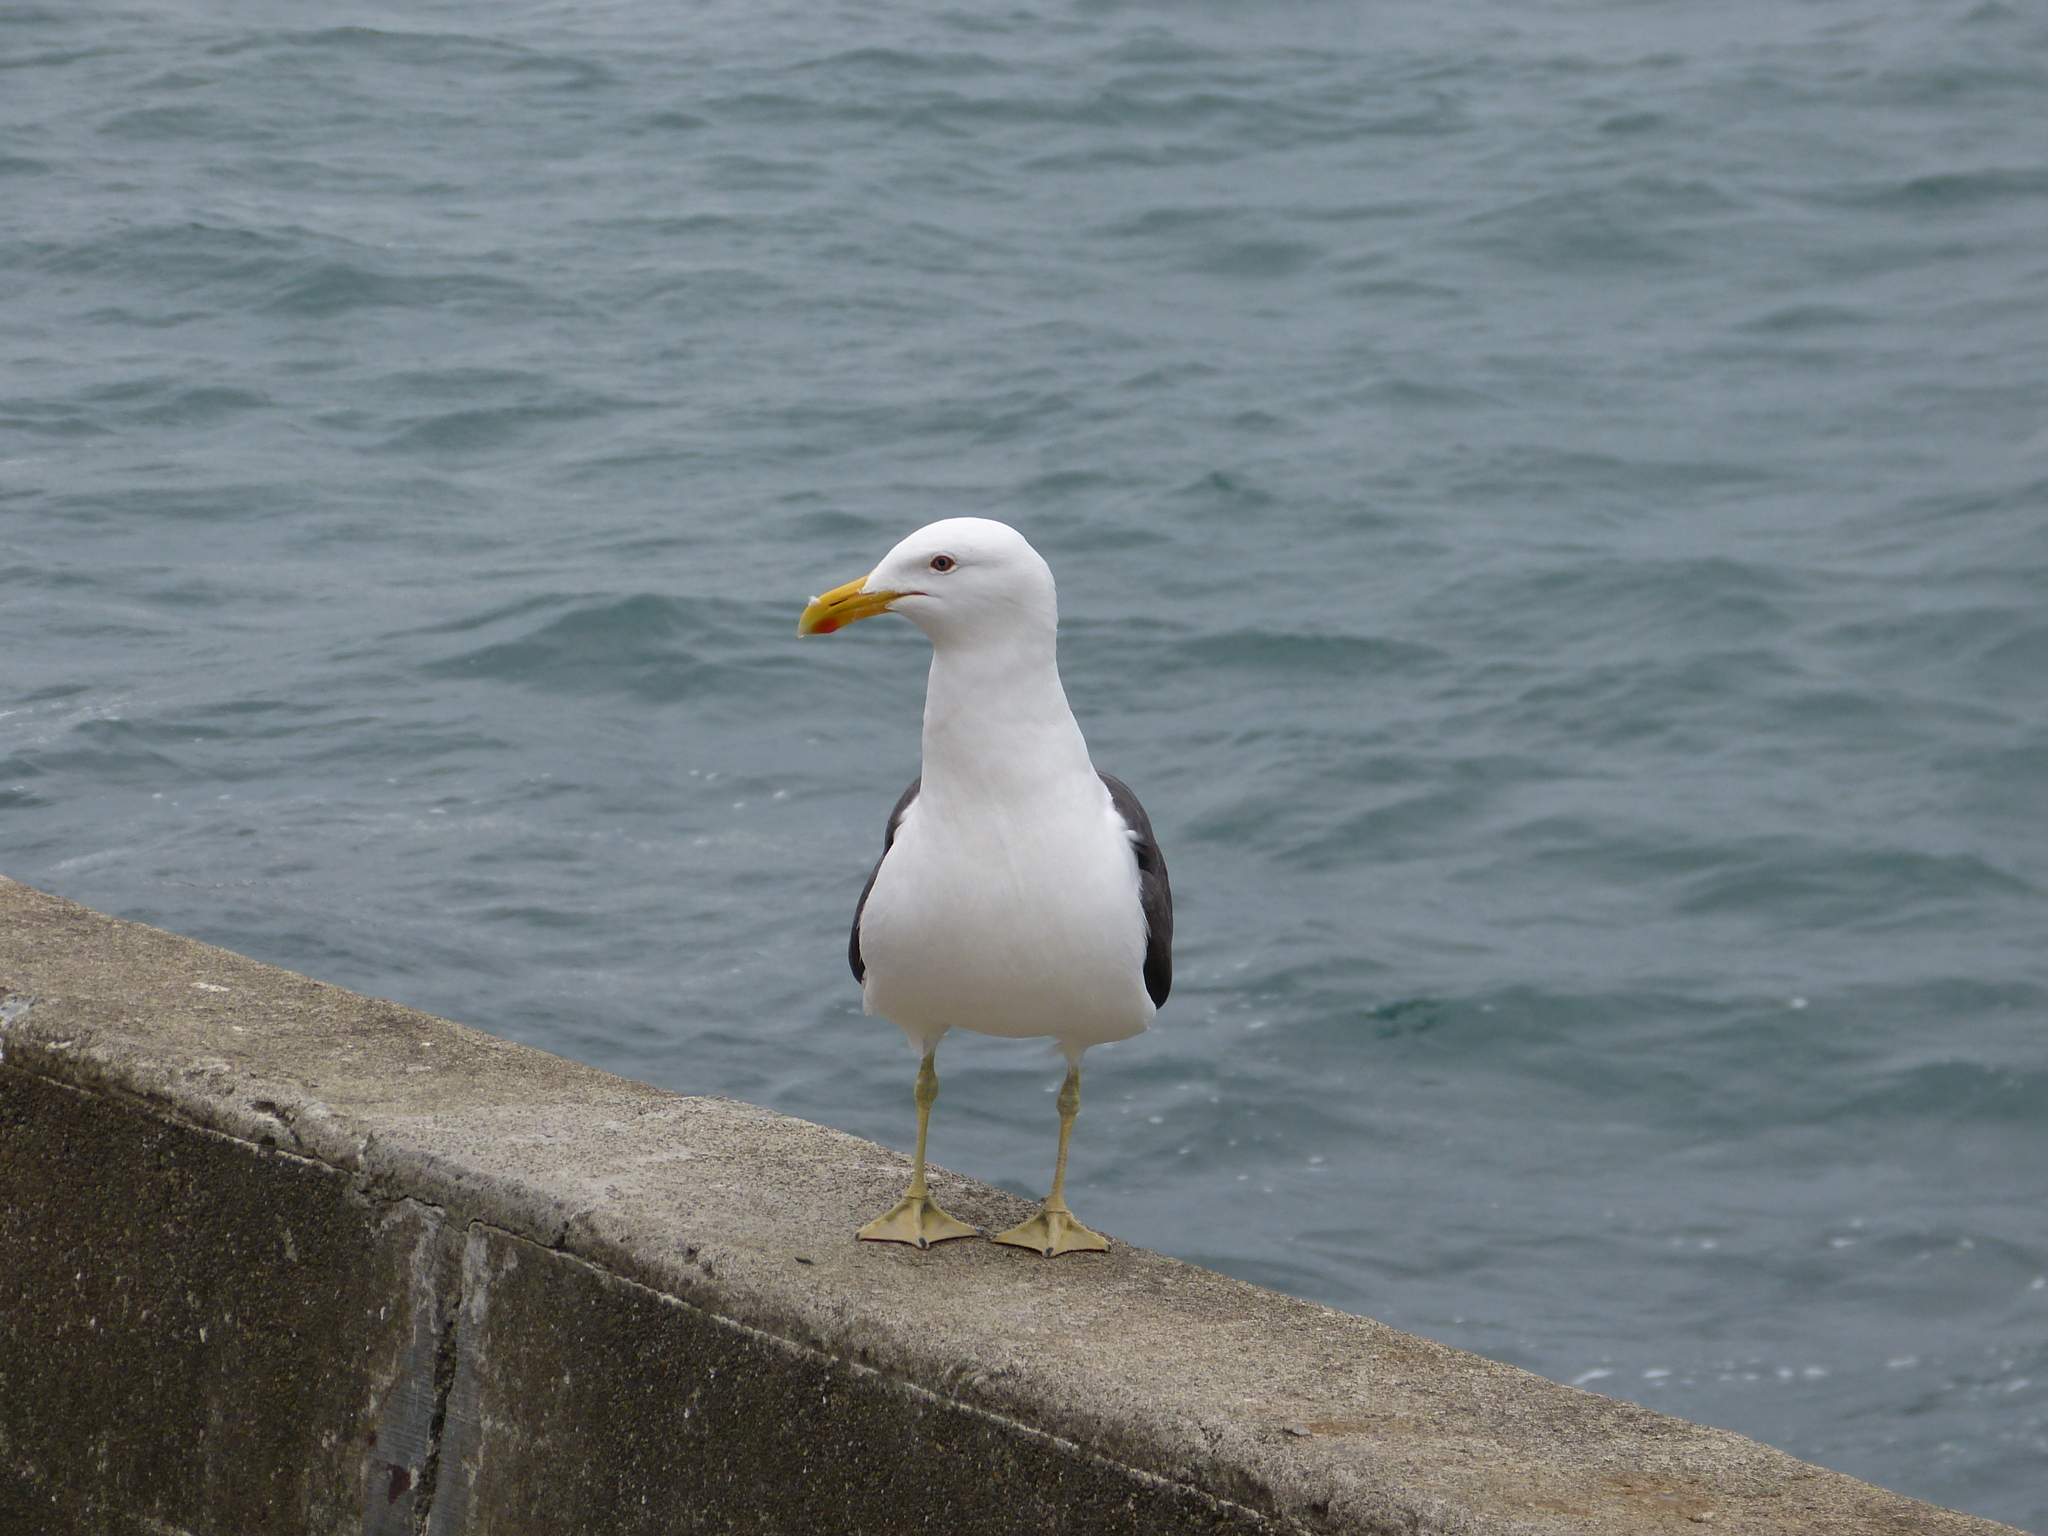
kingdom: Animalia
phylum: Chordata
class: Aves
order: Charadriiformes
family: Laridae
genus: Larus
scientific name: Larus dominicanus
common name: Kelp gull
